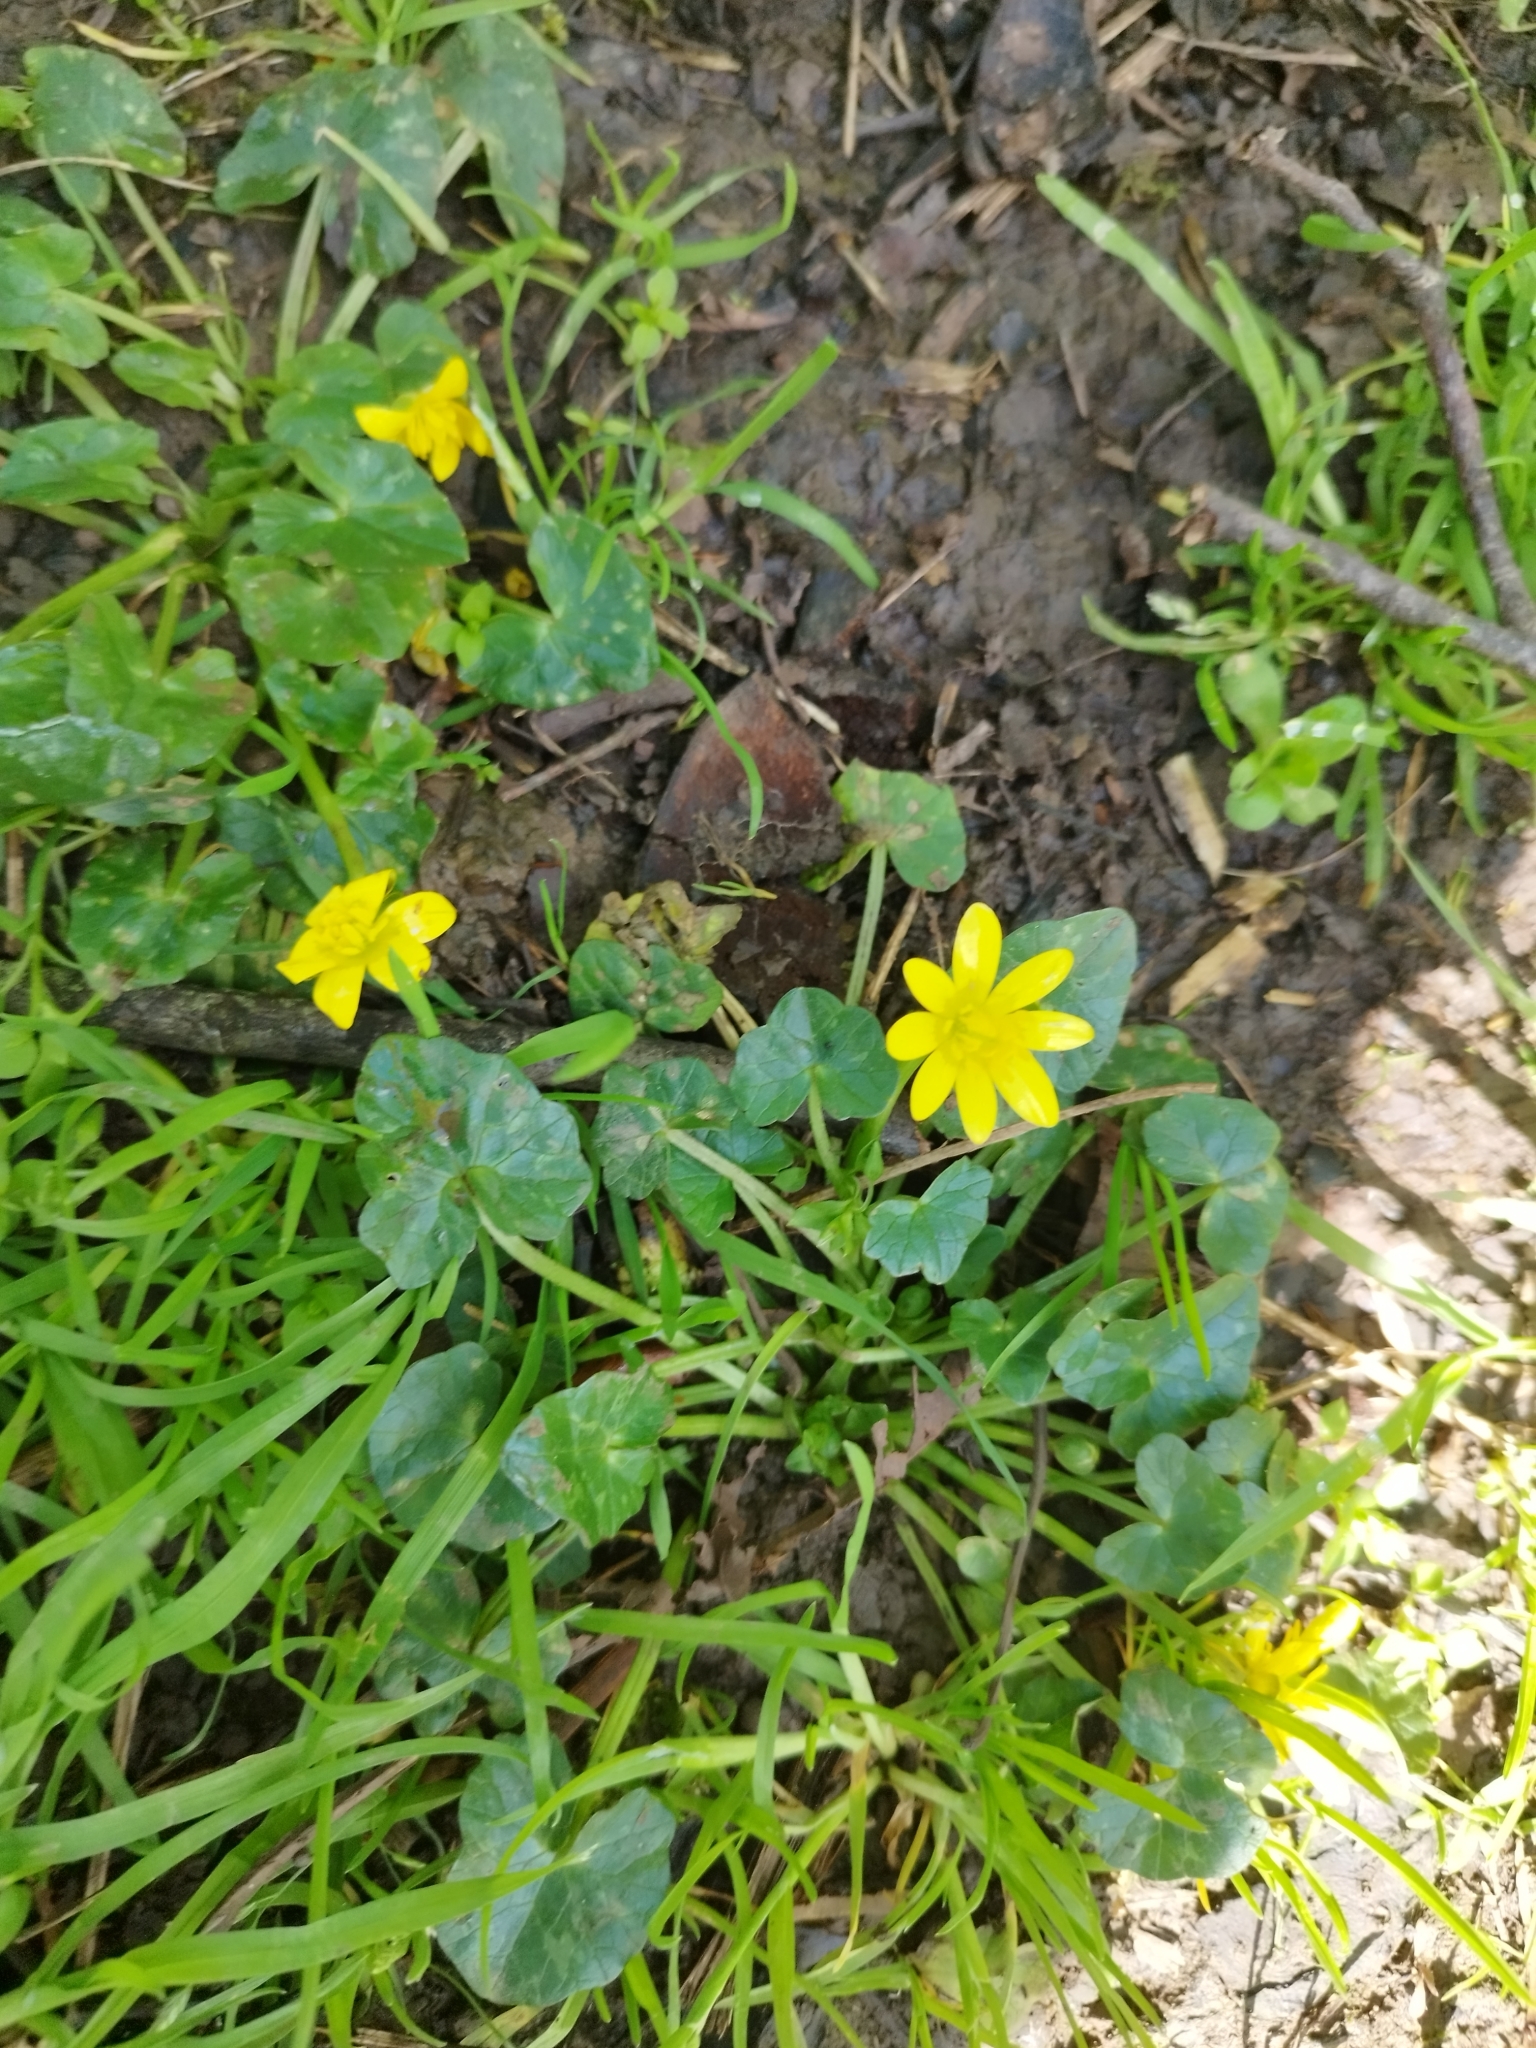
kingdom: Plantae
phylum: Tracheophyta
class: Magnoliopsida
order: Ranunculales
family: Ranunculaceae
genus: Ficaria
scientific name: Ficaria verna
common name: Lesser celandine
